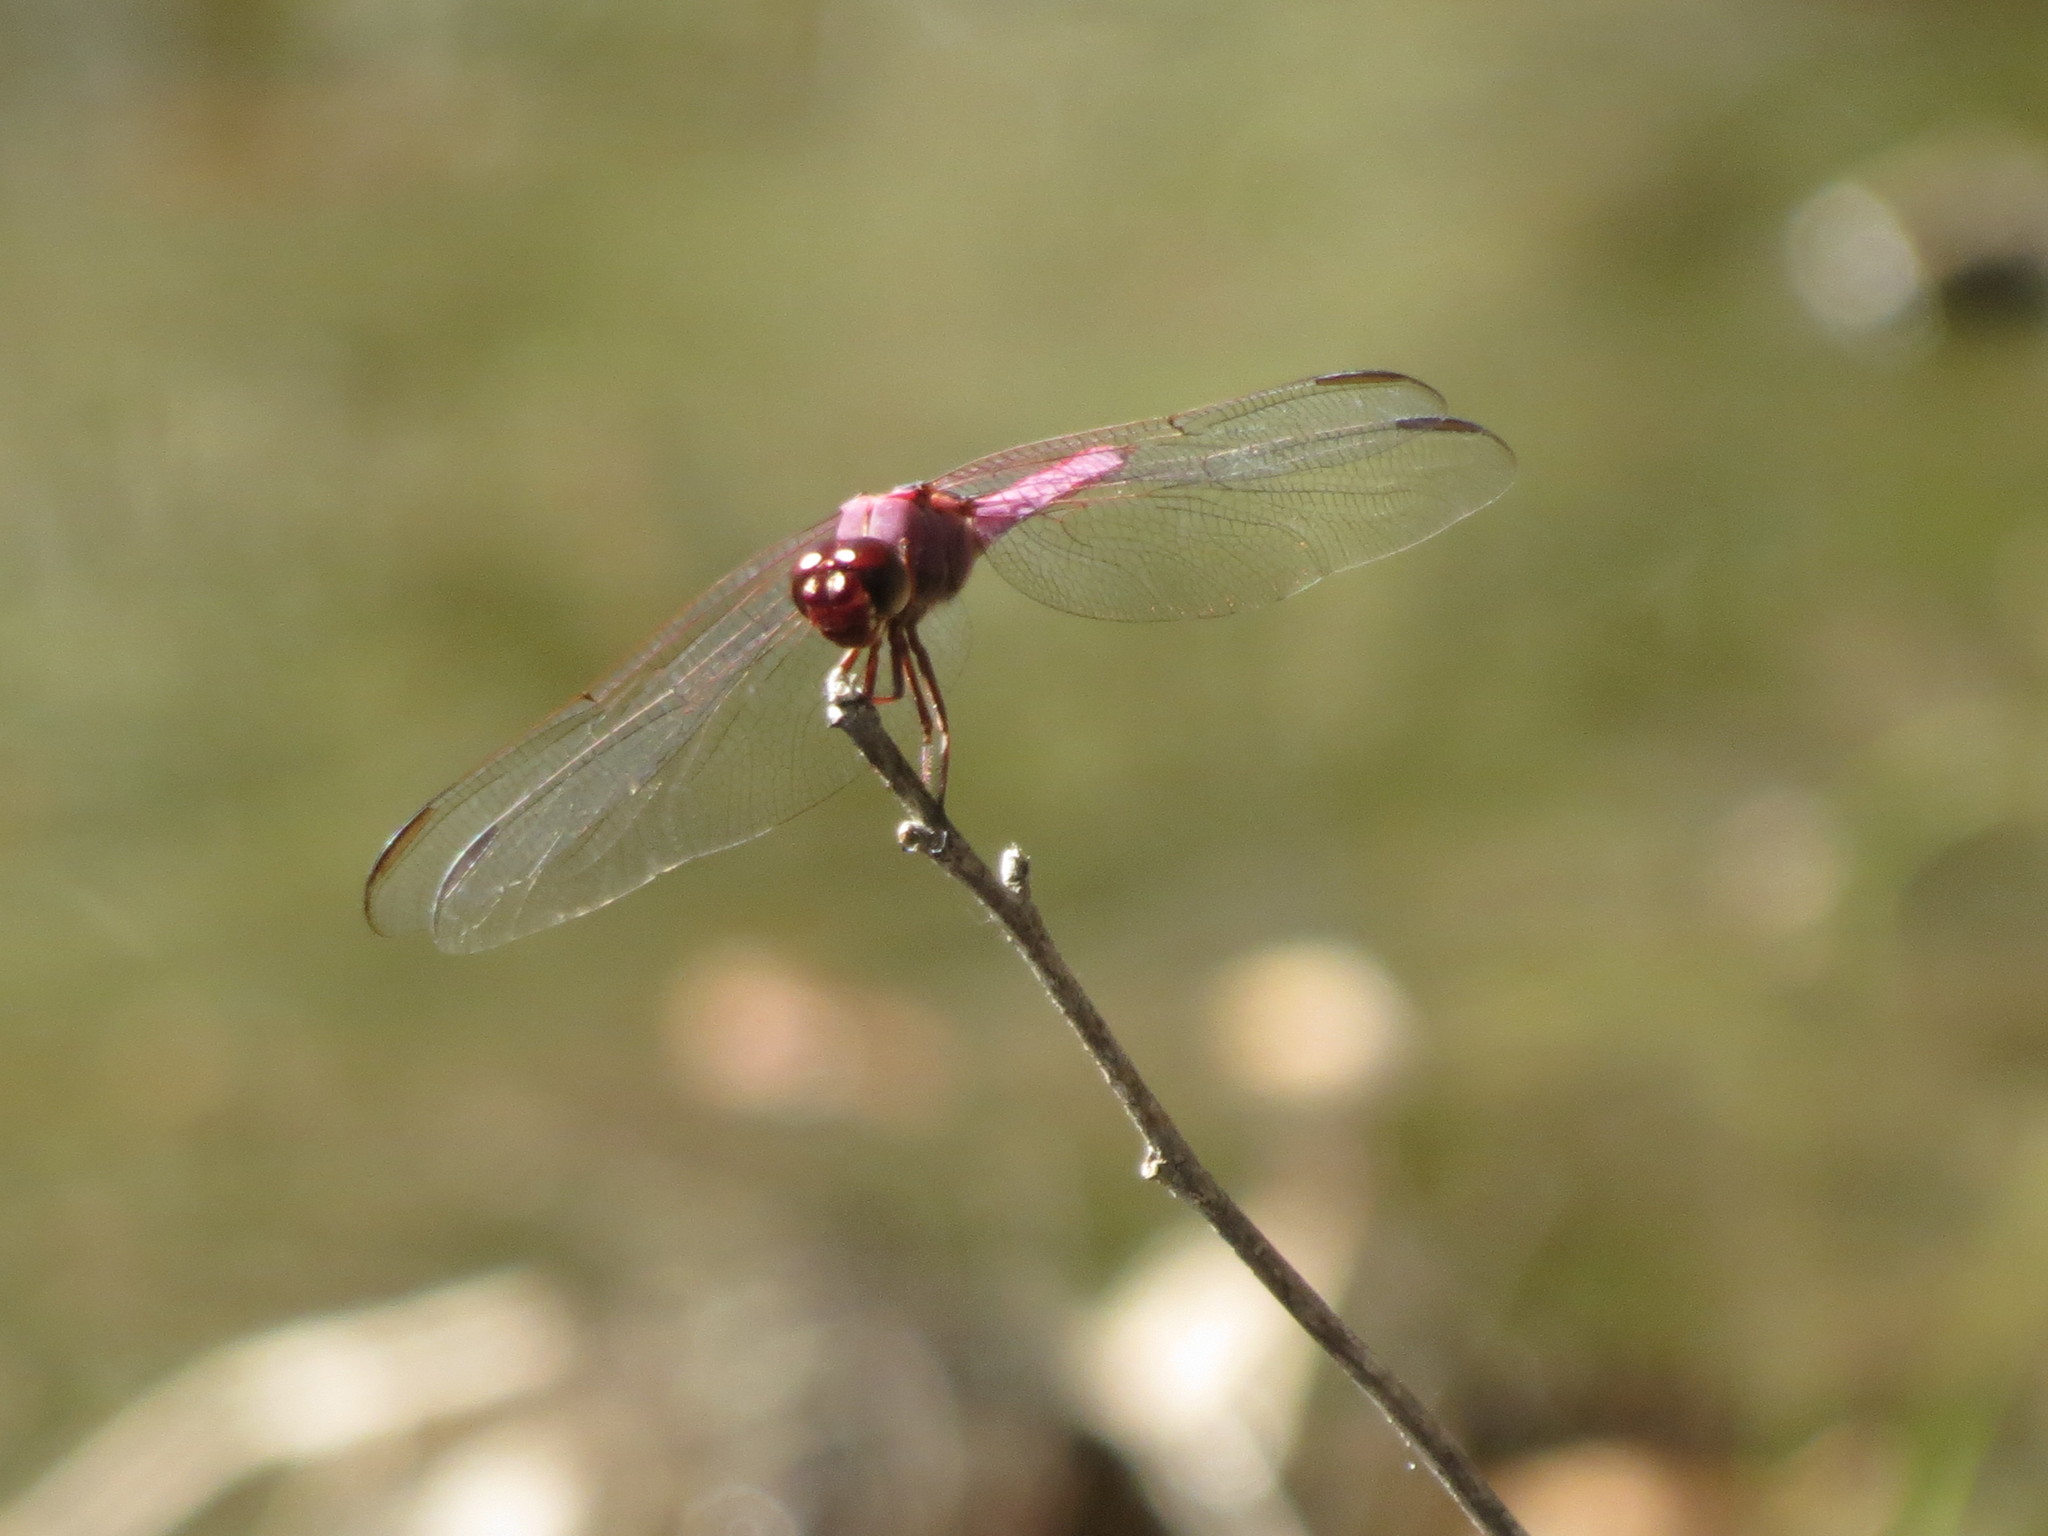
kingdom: Animalia
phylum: Arthropoda
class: Insecta
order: Odonata
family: Libellulidae
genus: Orthemis
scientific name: Orthemis ferruginea
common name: Roseate skimmer
